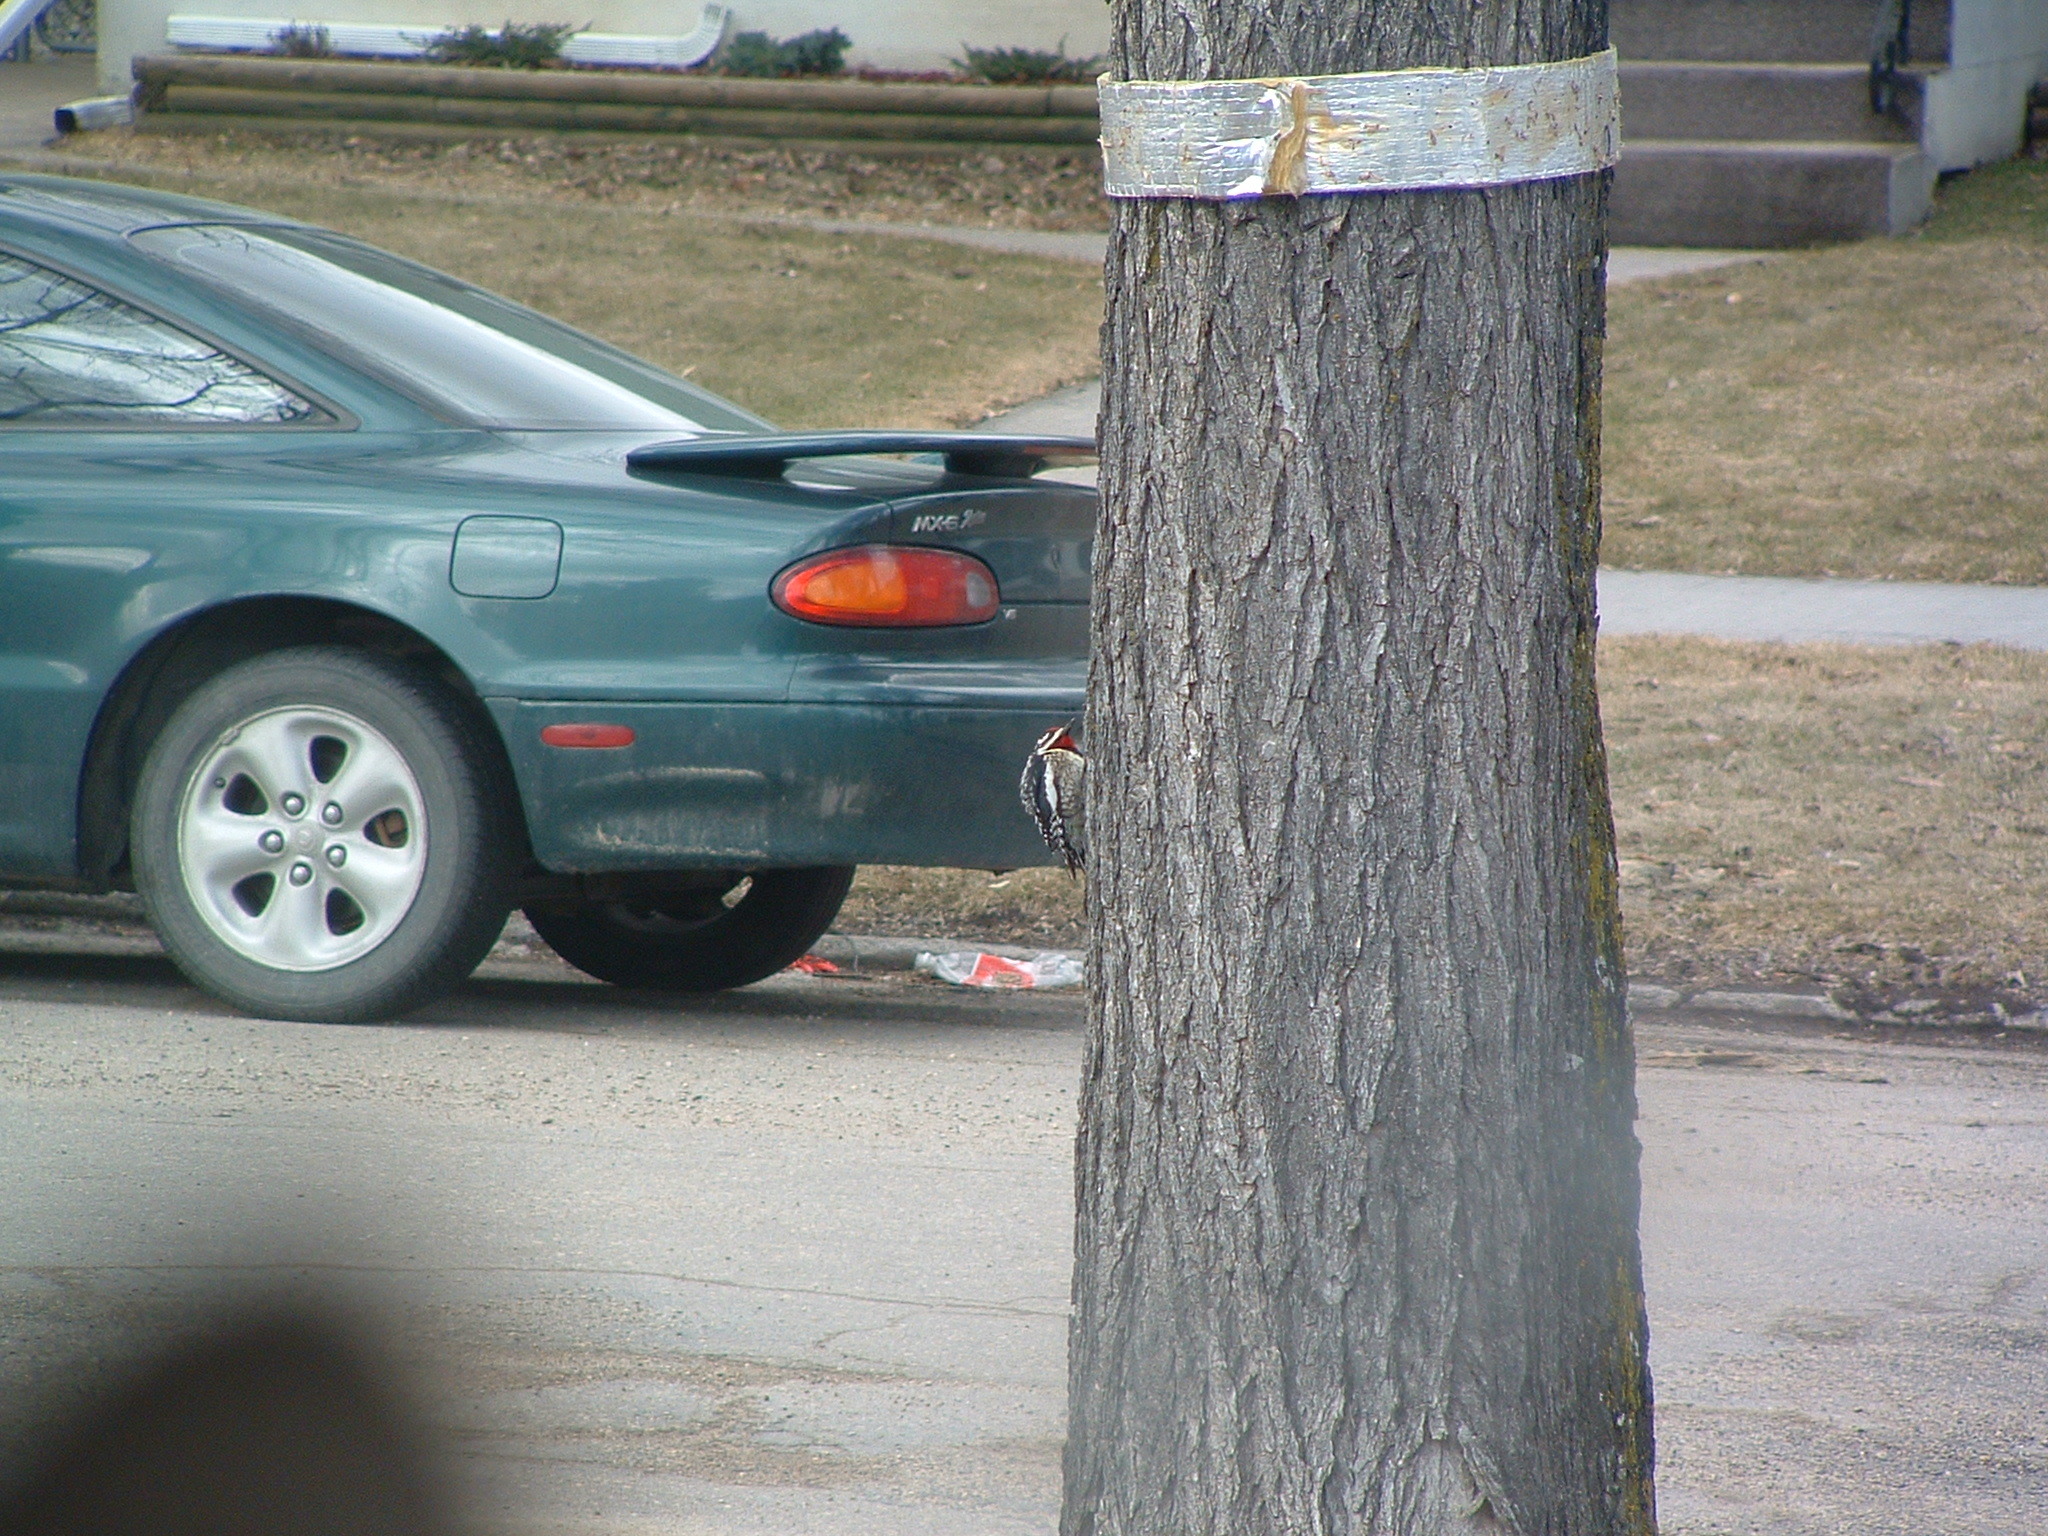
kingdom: Animalia
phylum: Chordata
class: Aves
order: Piciformes
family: Picidae
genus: Sphyrapicus
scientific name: Sphyrapicus varius
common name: Yellow-bellied sapsucker
